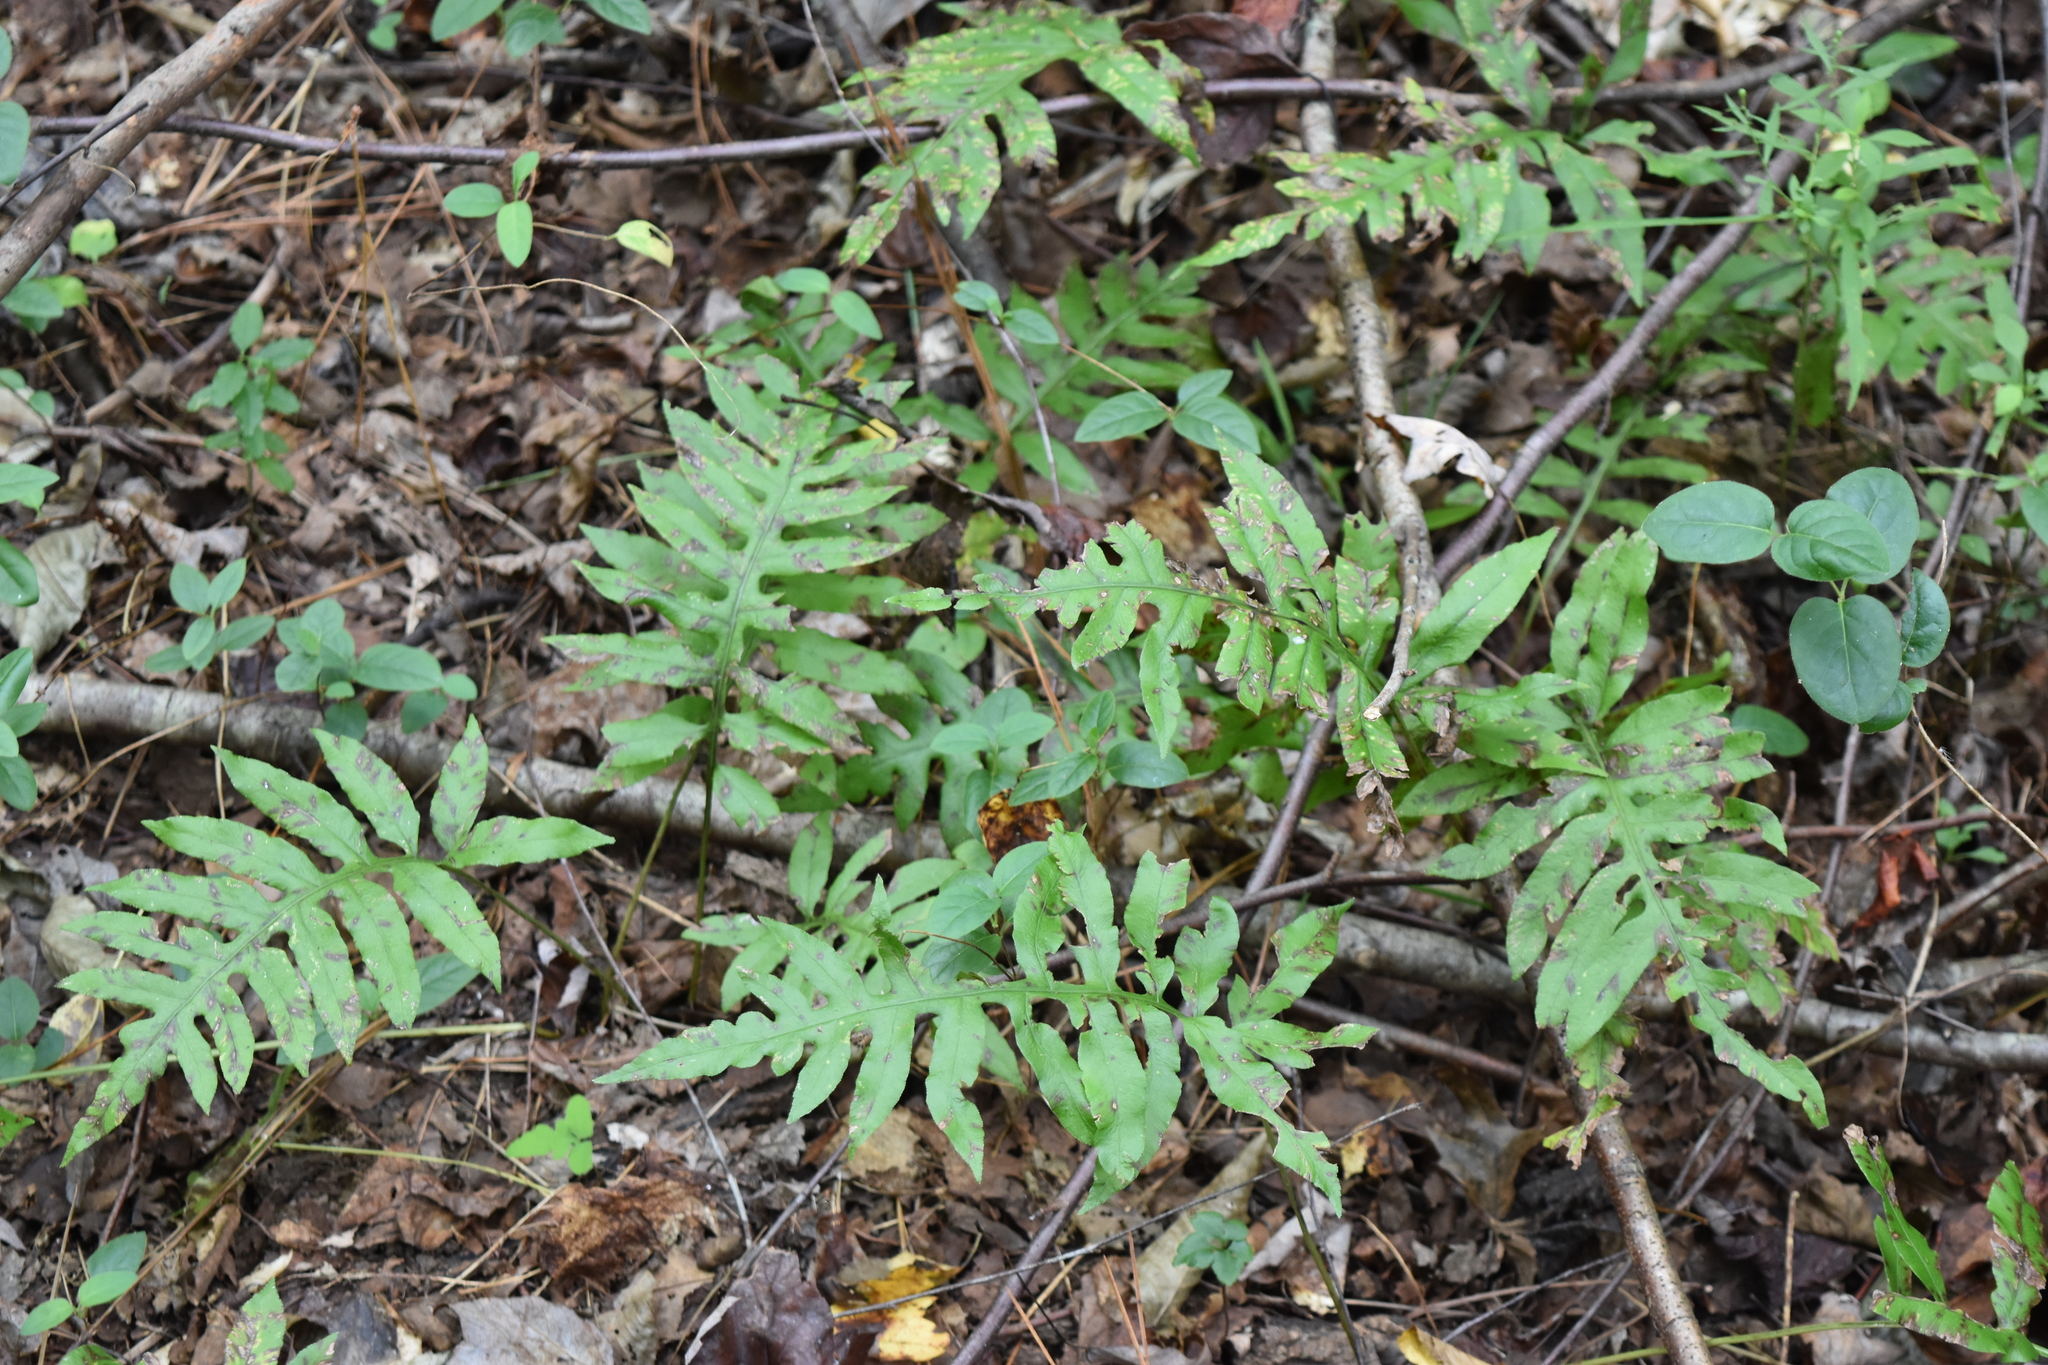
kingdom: Plantae
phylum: Tracheophyta
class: Polypodiopsida
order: Polypodiales
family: Blechnaceae
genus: Lorinseria
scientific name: Lorinseria areolata
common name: Dwarf chain fern
